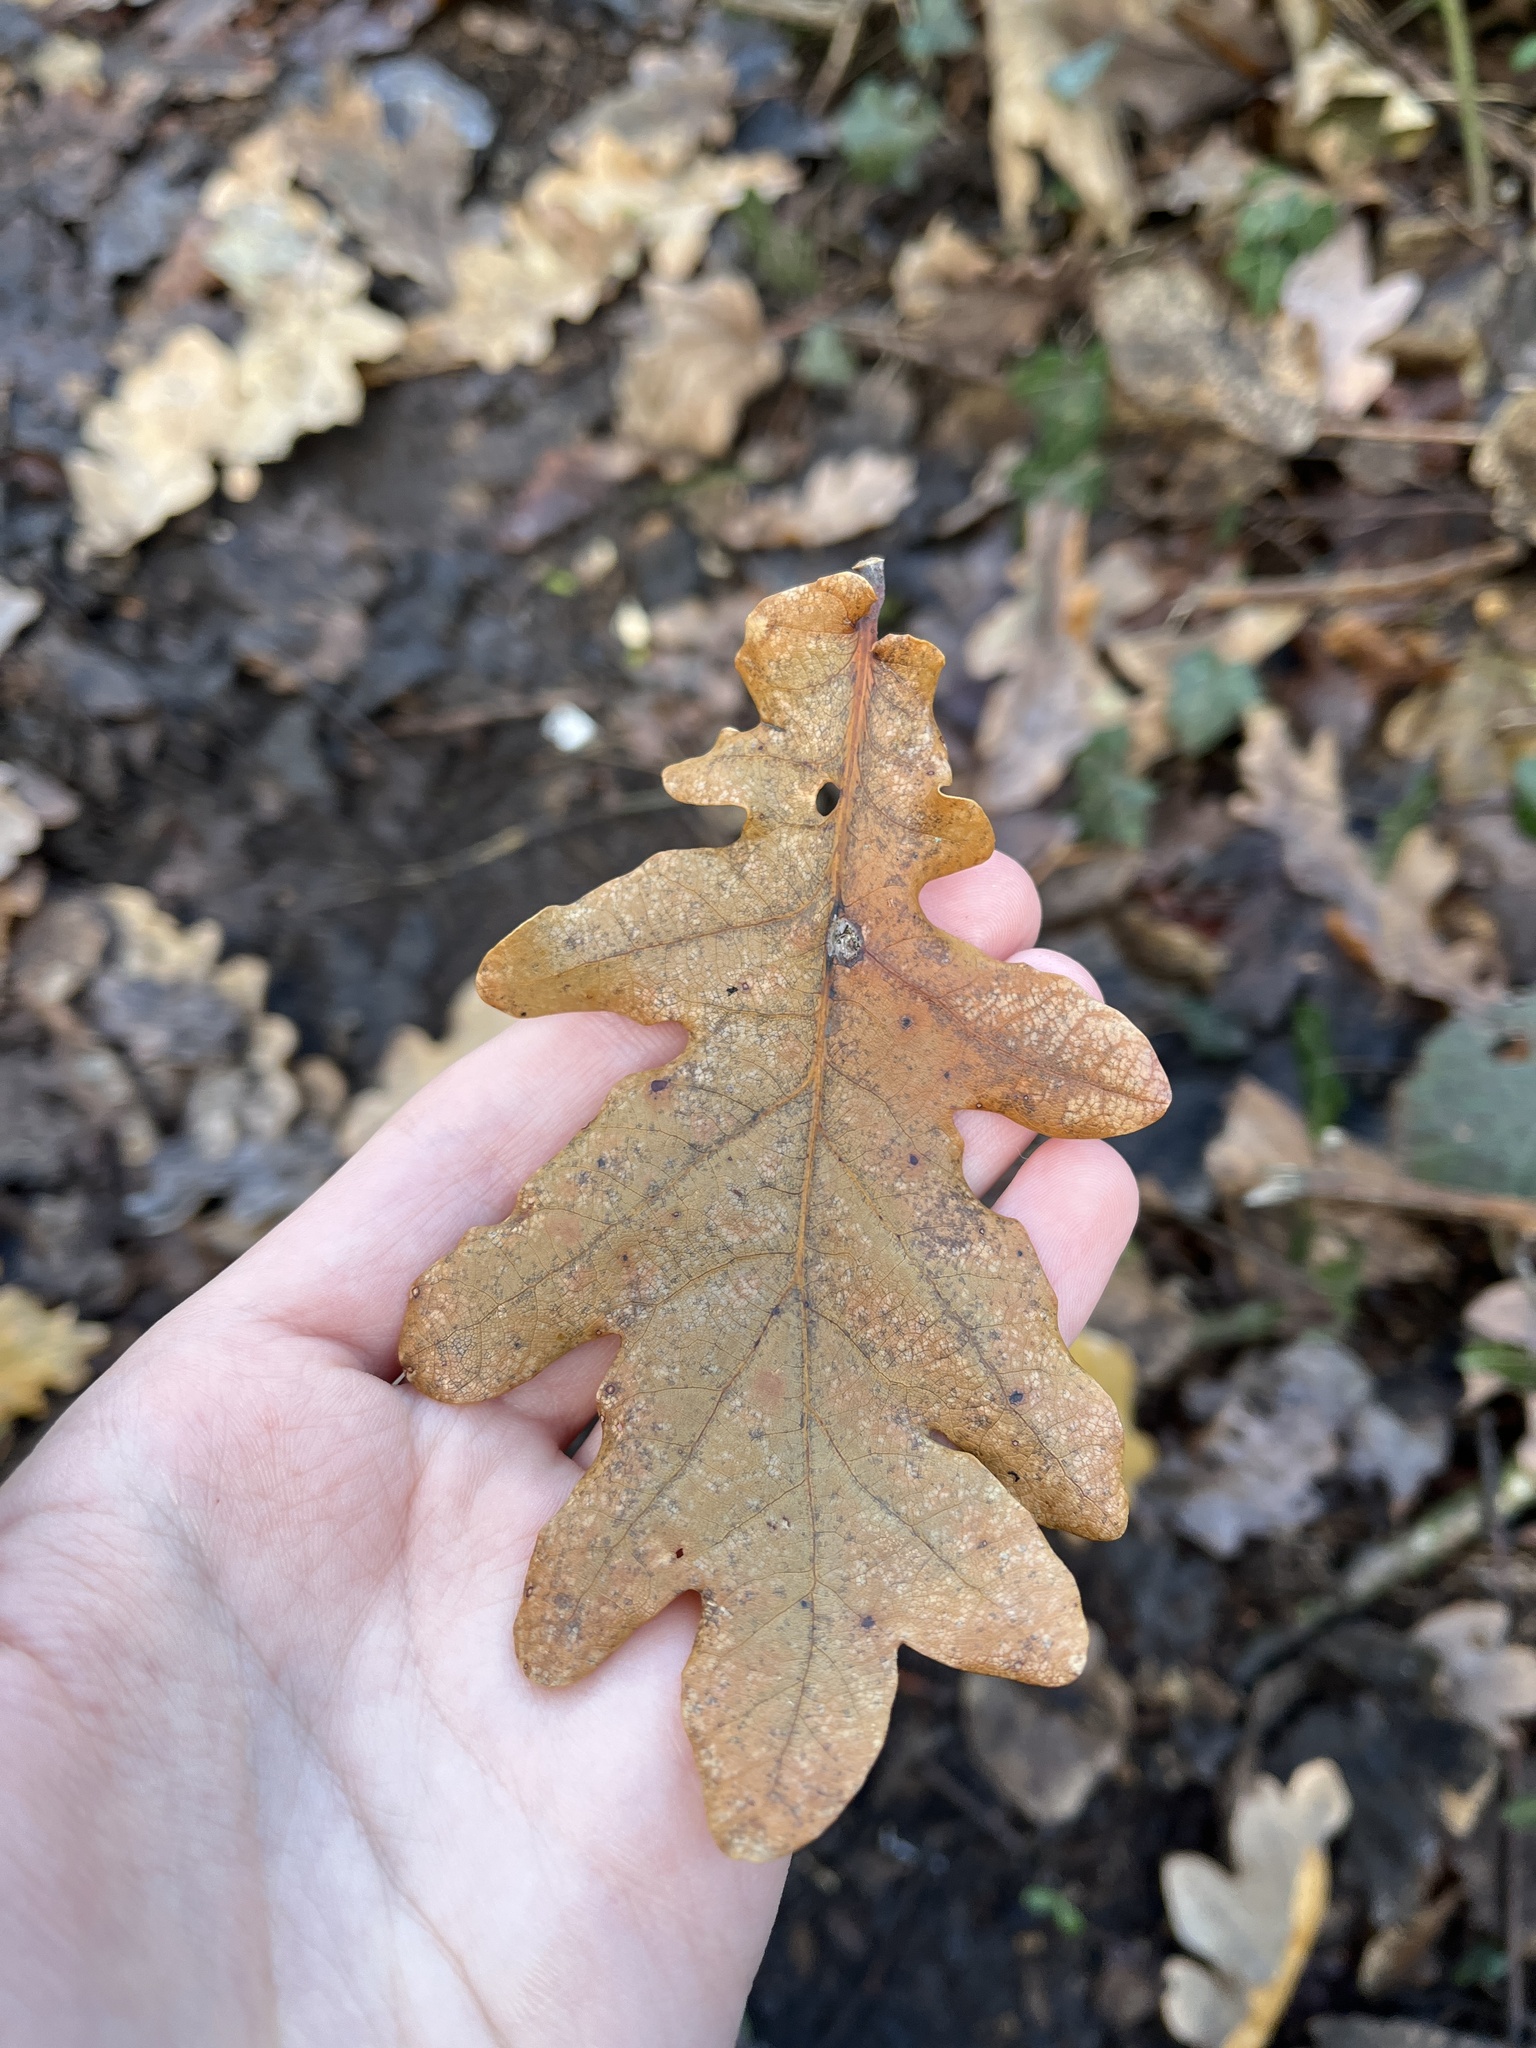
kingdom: Plantae
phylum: Tracheophyta
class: Magnoliopsida
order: Fagales
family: Fagaceae
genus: Quercus
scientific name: Quercus robur
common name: Pedunculate oak
